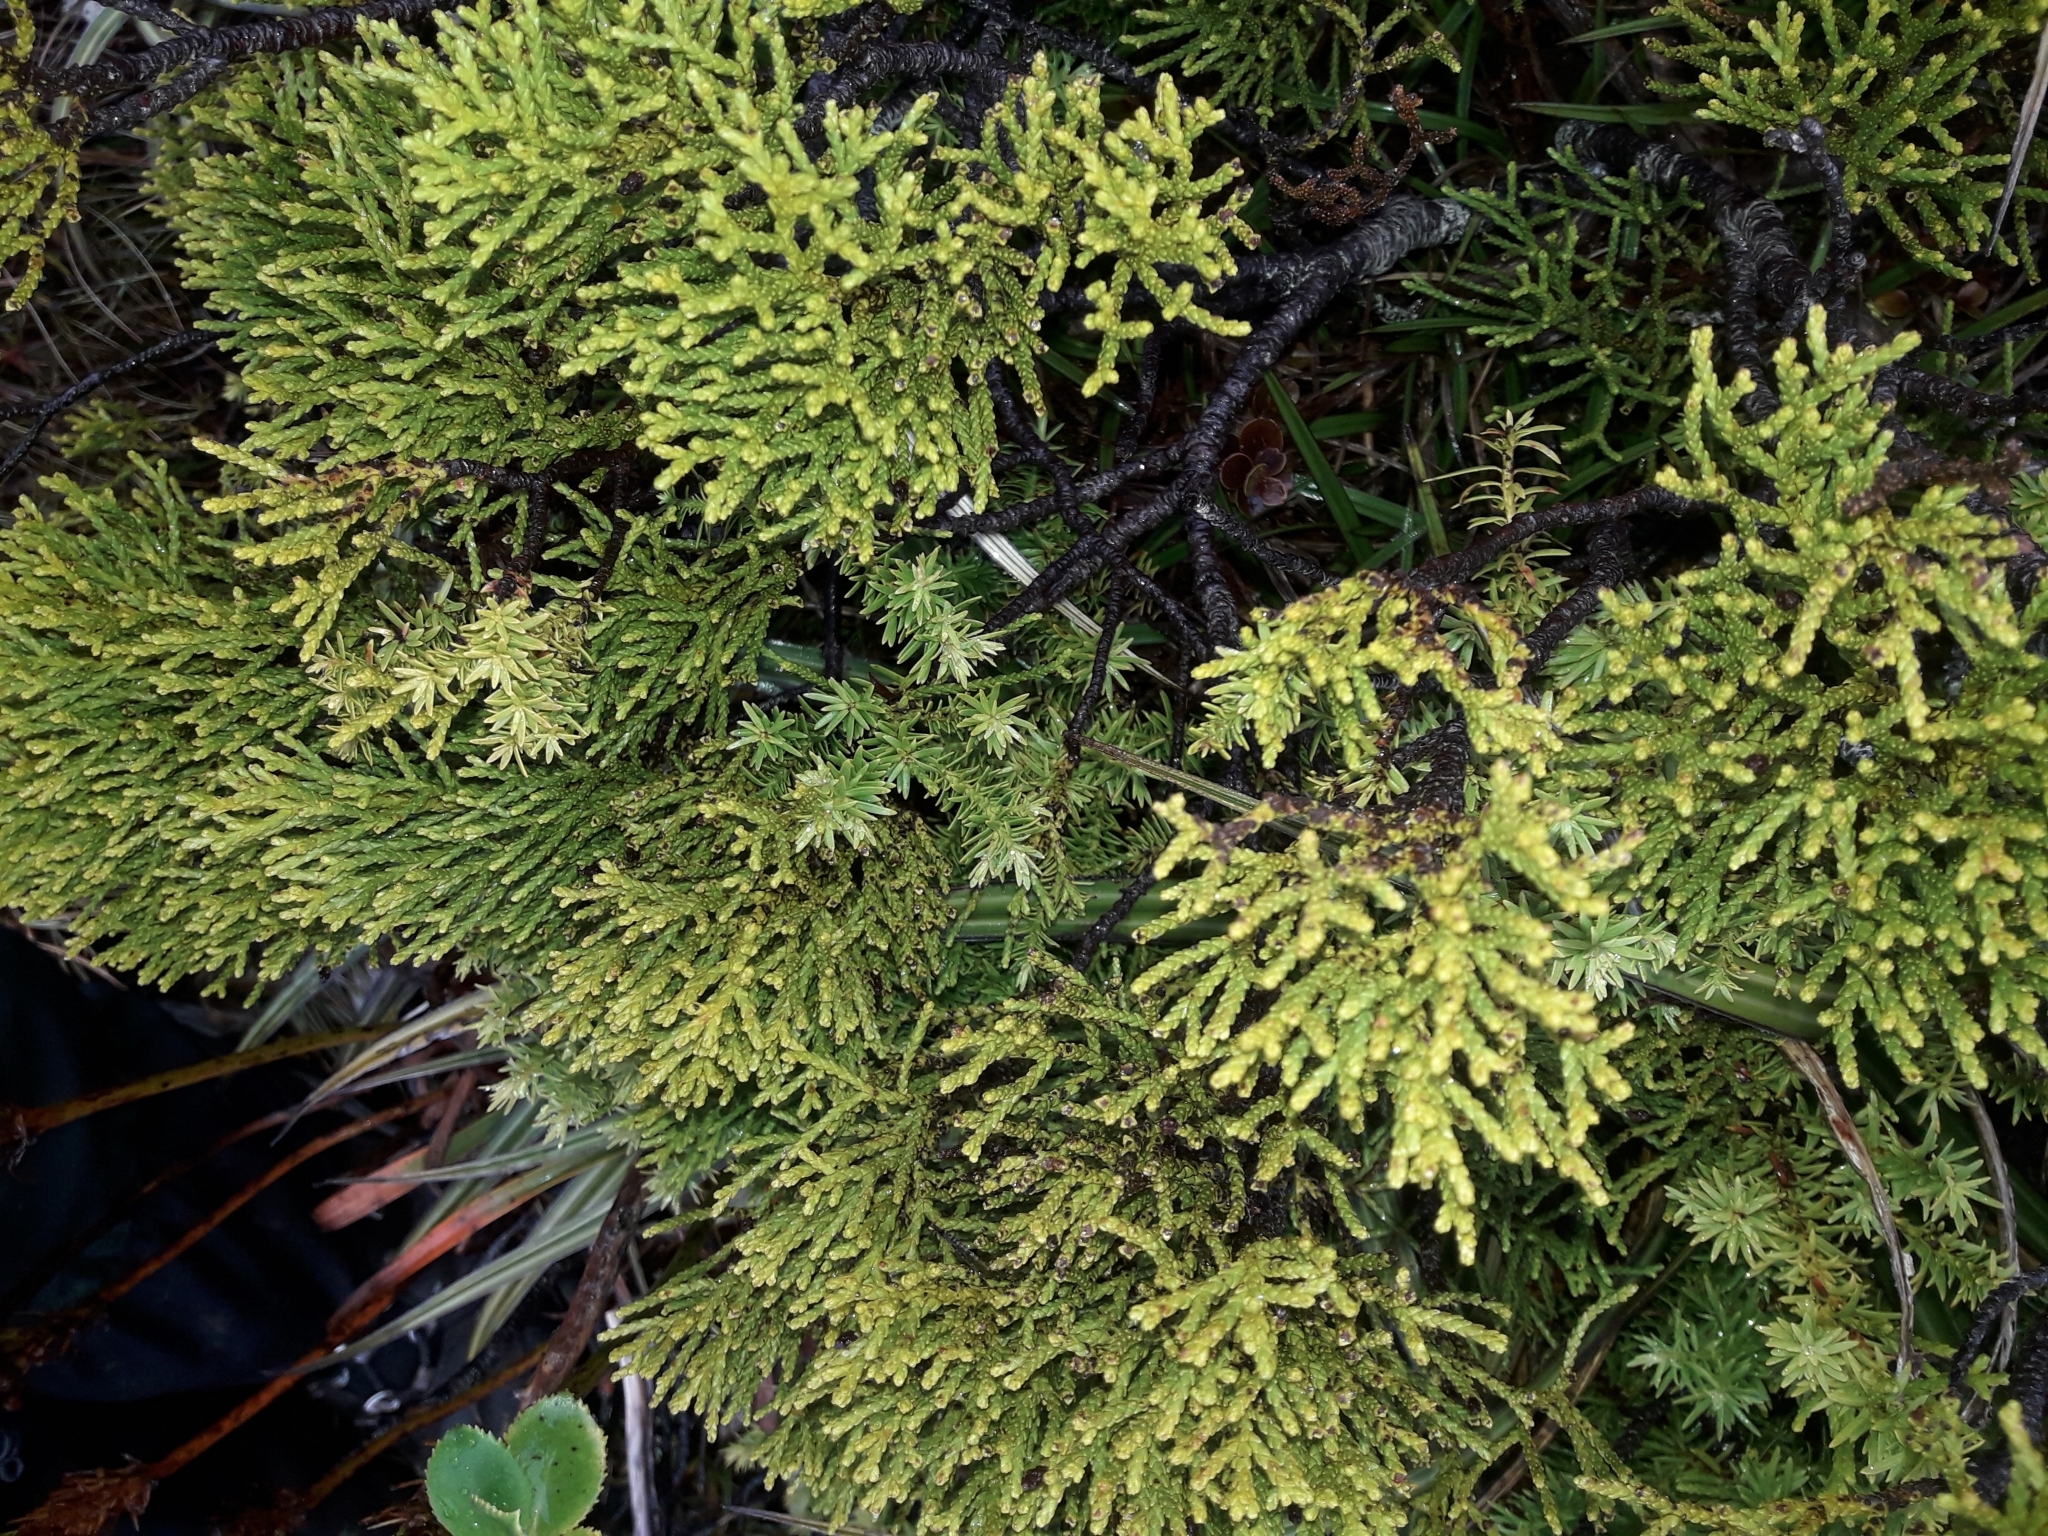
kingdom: Plantae
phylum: Tracheophyta
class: Pinopsida
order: Pinales
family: Podocarpaceae
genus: Halocarpus
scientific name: Halocarpus biformis
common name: Alpine tarwood
